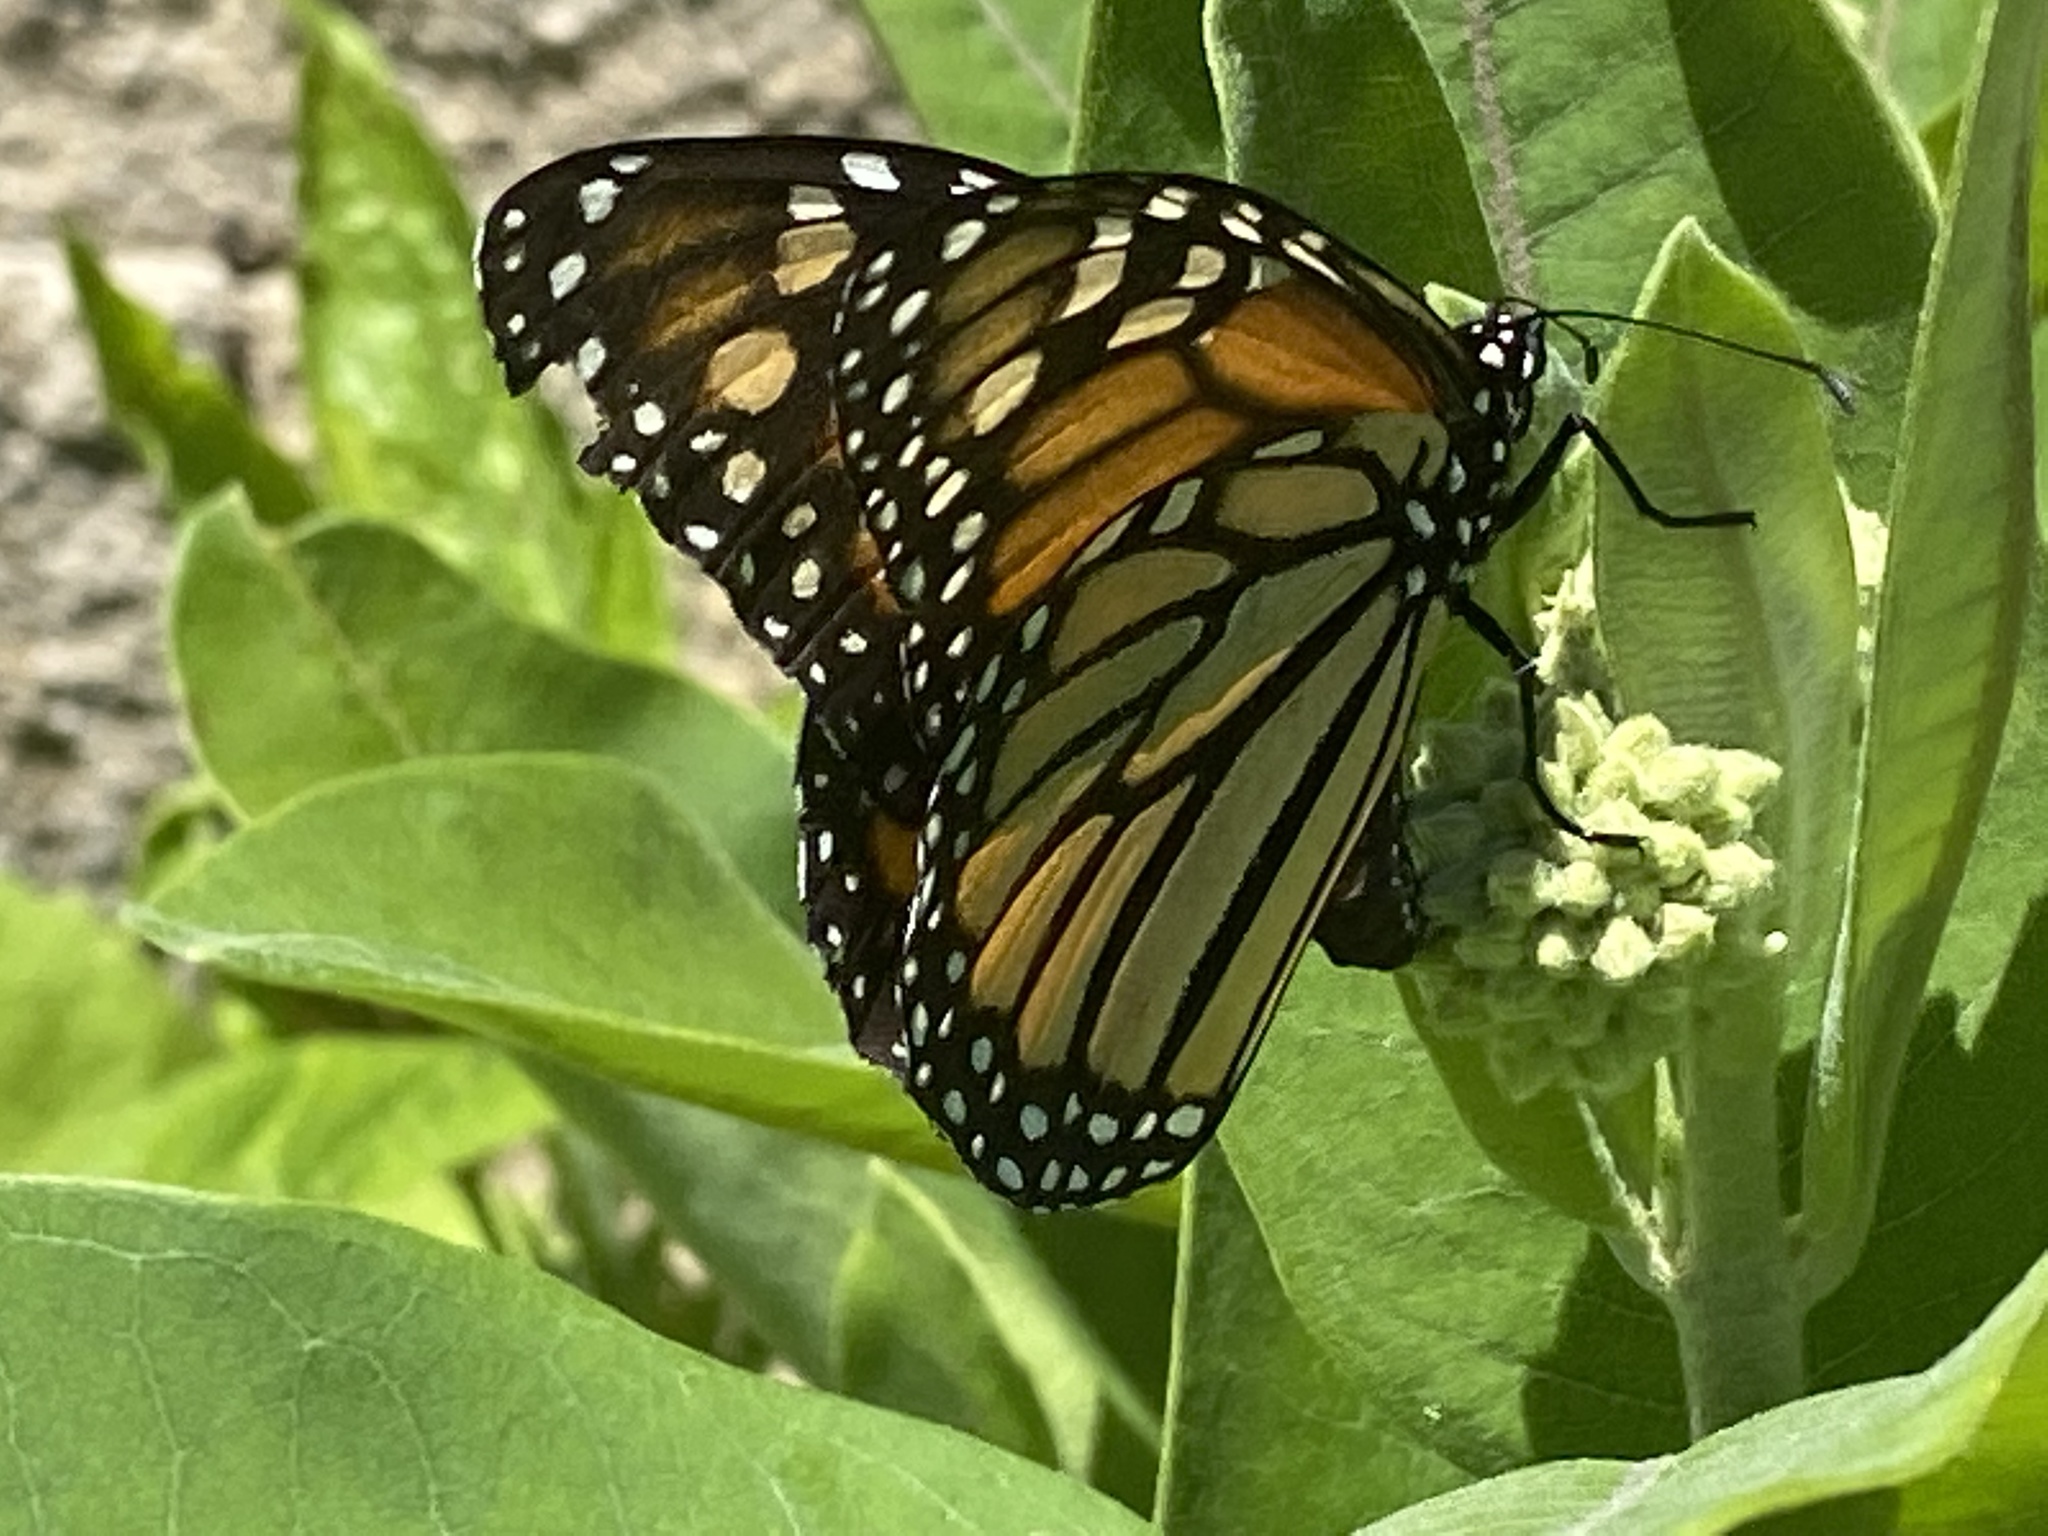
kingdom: Animalia
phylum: Arthropoda
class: Insecta
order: Lepidoptera
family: Nymphalidae
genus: Danaus
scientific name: Danaus plexippus
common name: Monarch
